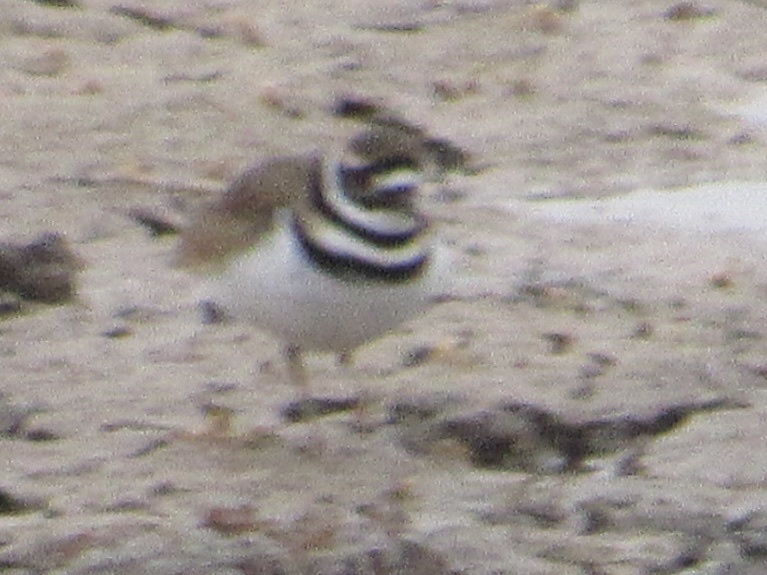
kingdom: Animalia
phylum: Chordata
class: Aves
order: Charadriiformes
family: Charadriidae
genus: Charadrius
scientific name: Charadrius vociferus
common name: Killdeer
